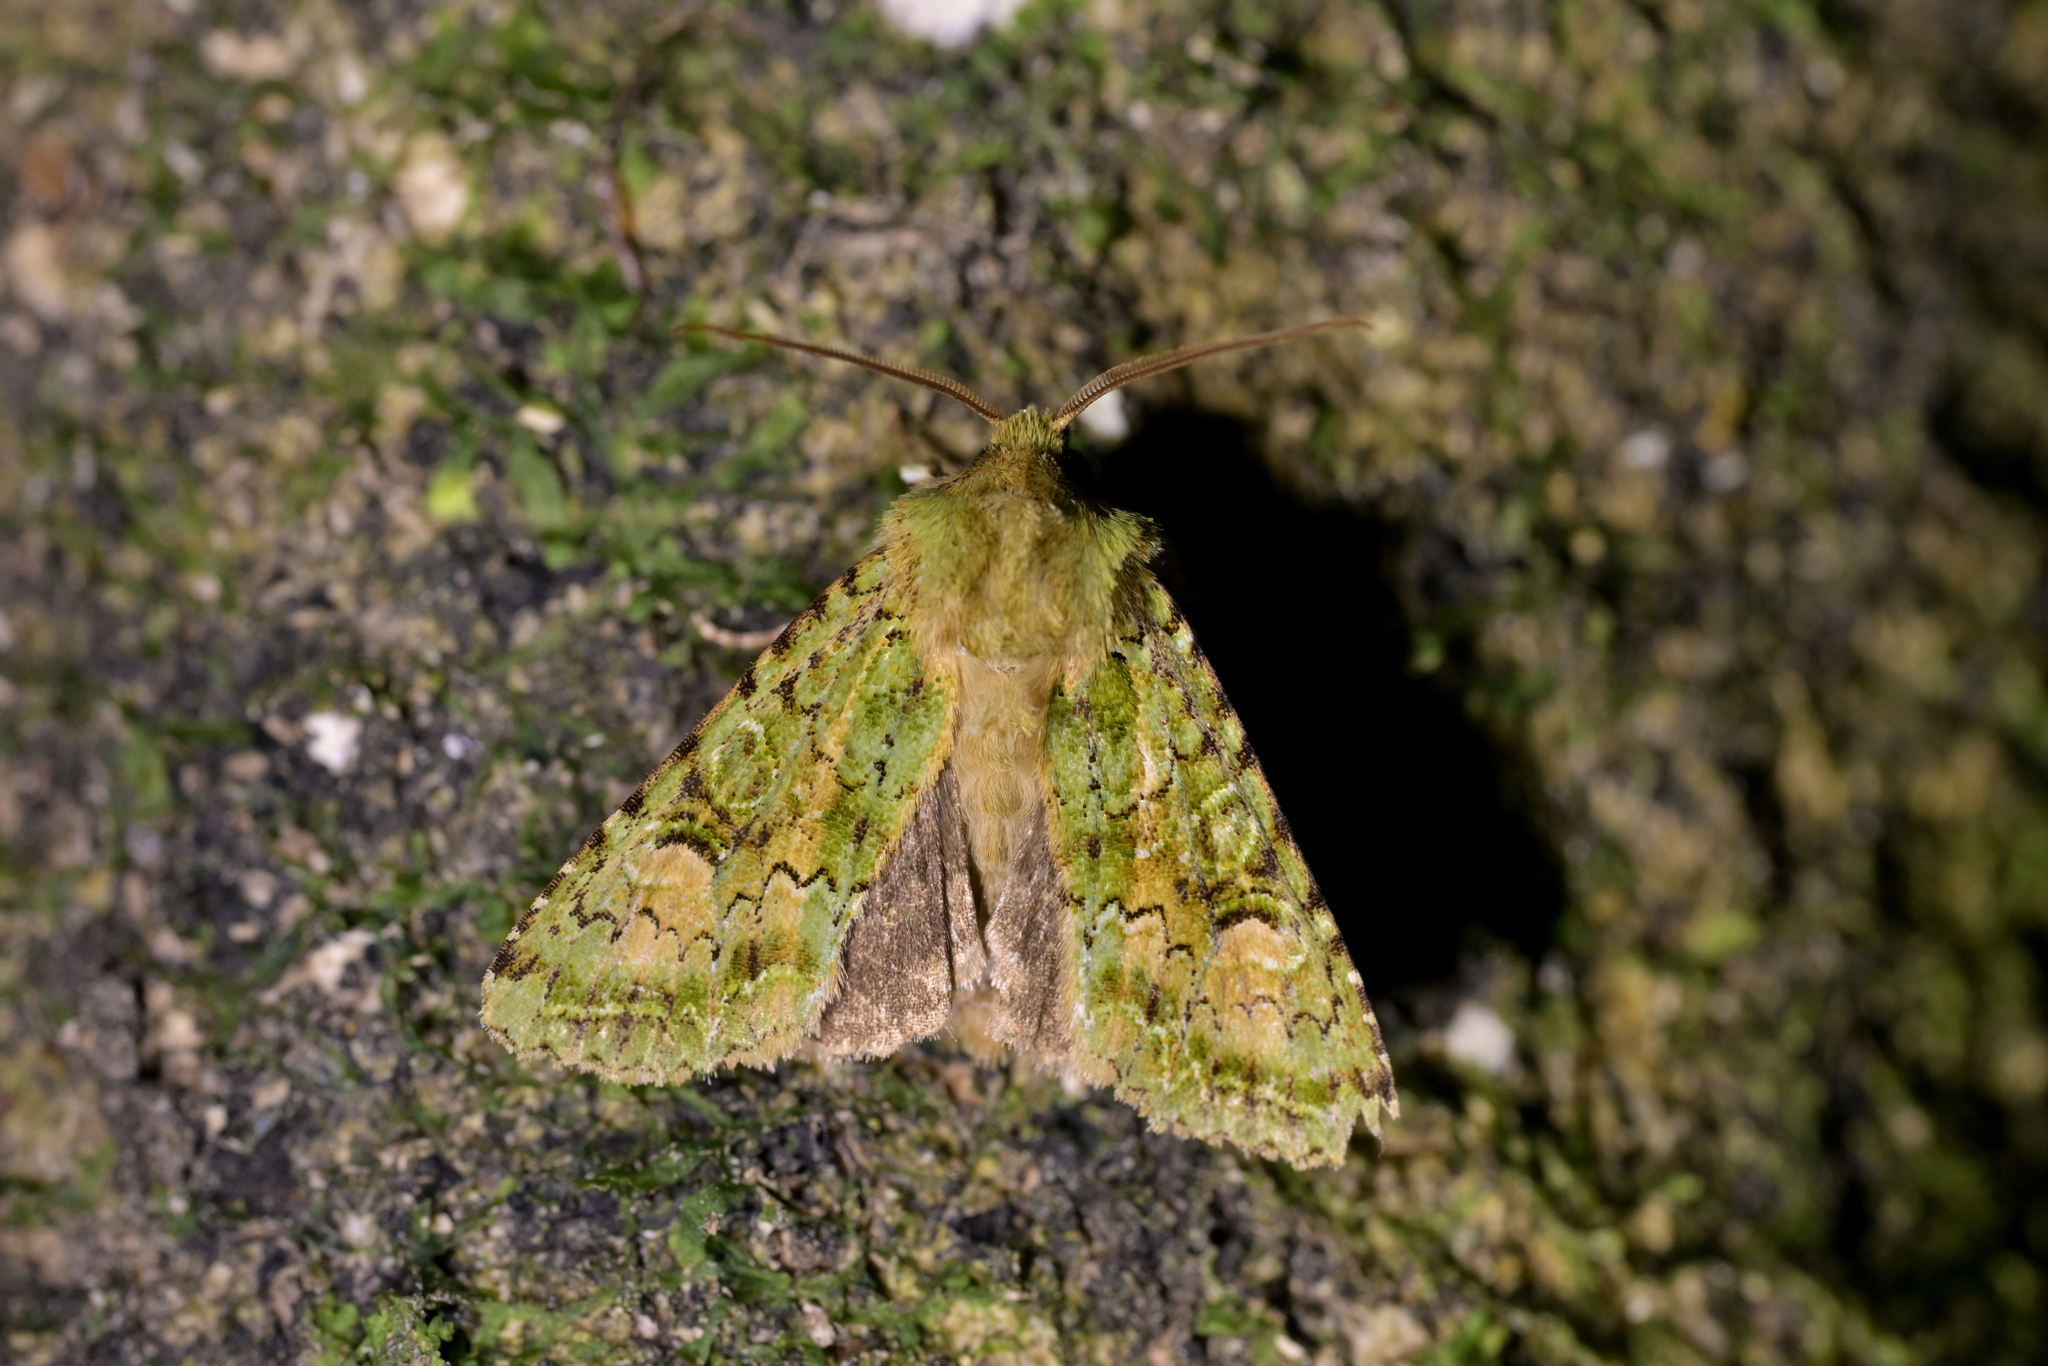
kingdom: Animalia
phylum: Arthropoda
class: Insecta
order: Lepidoptera
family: Noctuidae
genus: Ichneutica
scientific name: Ichneutica
